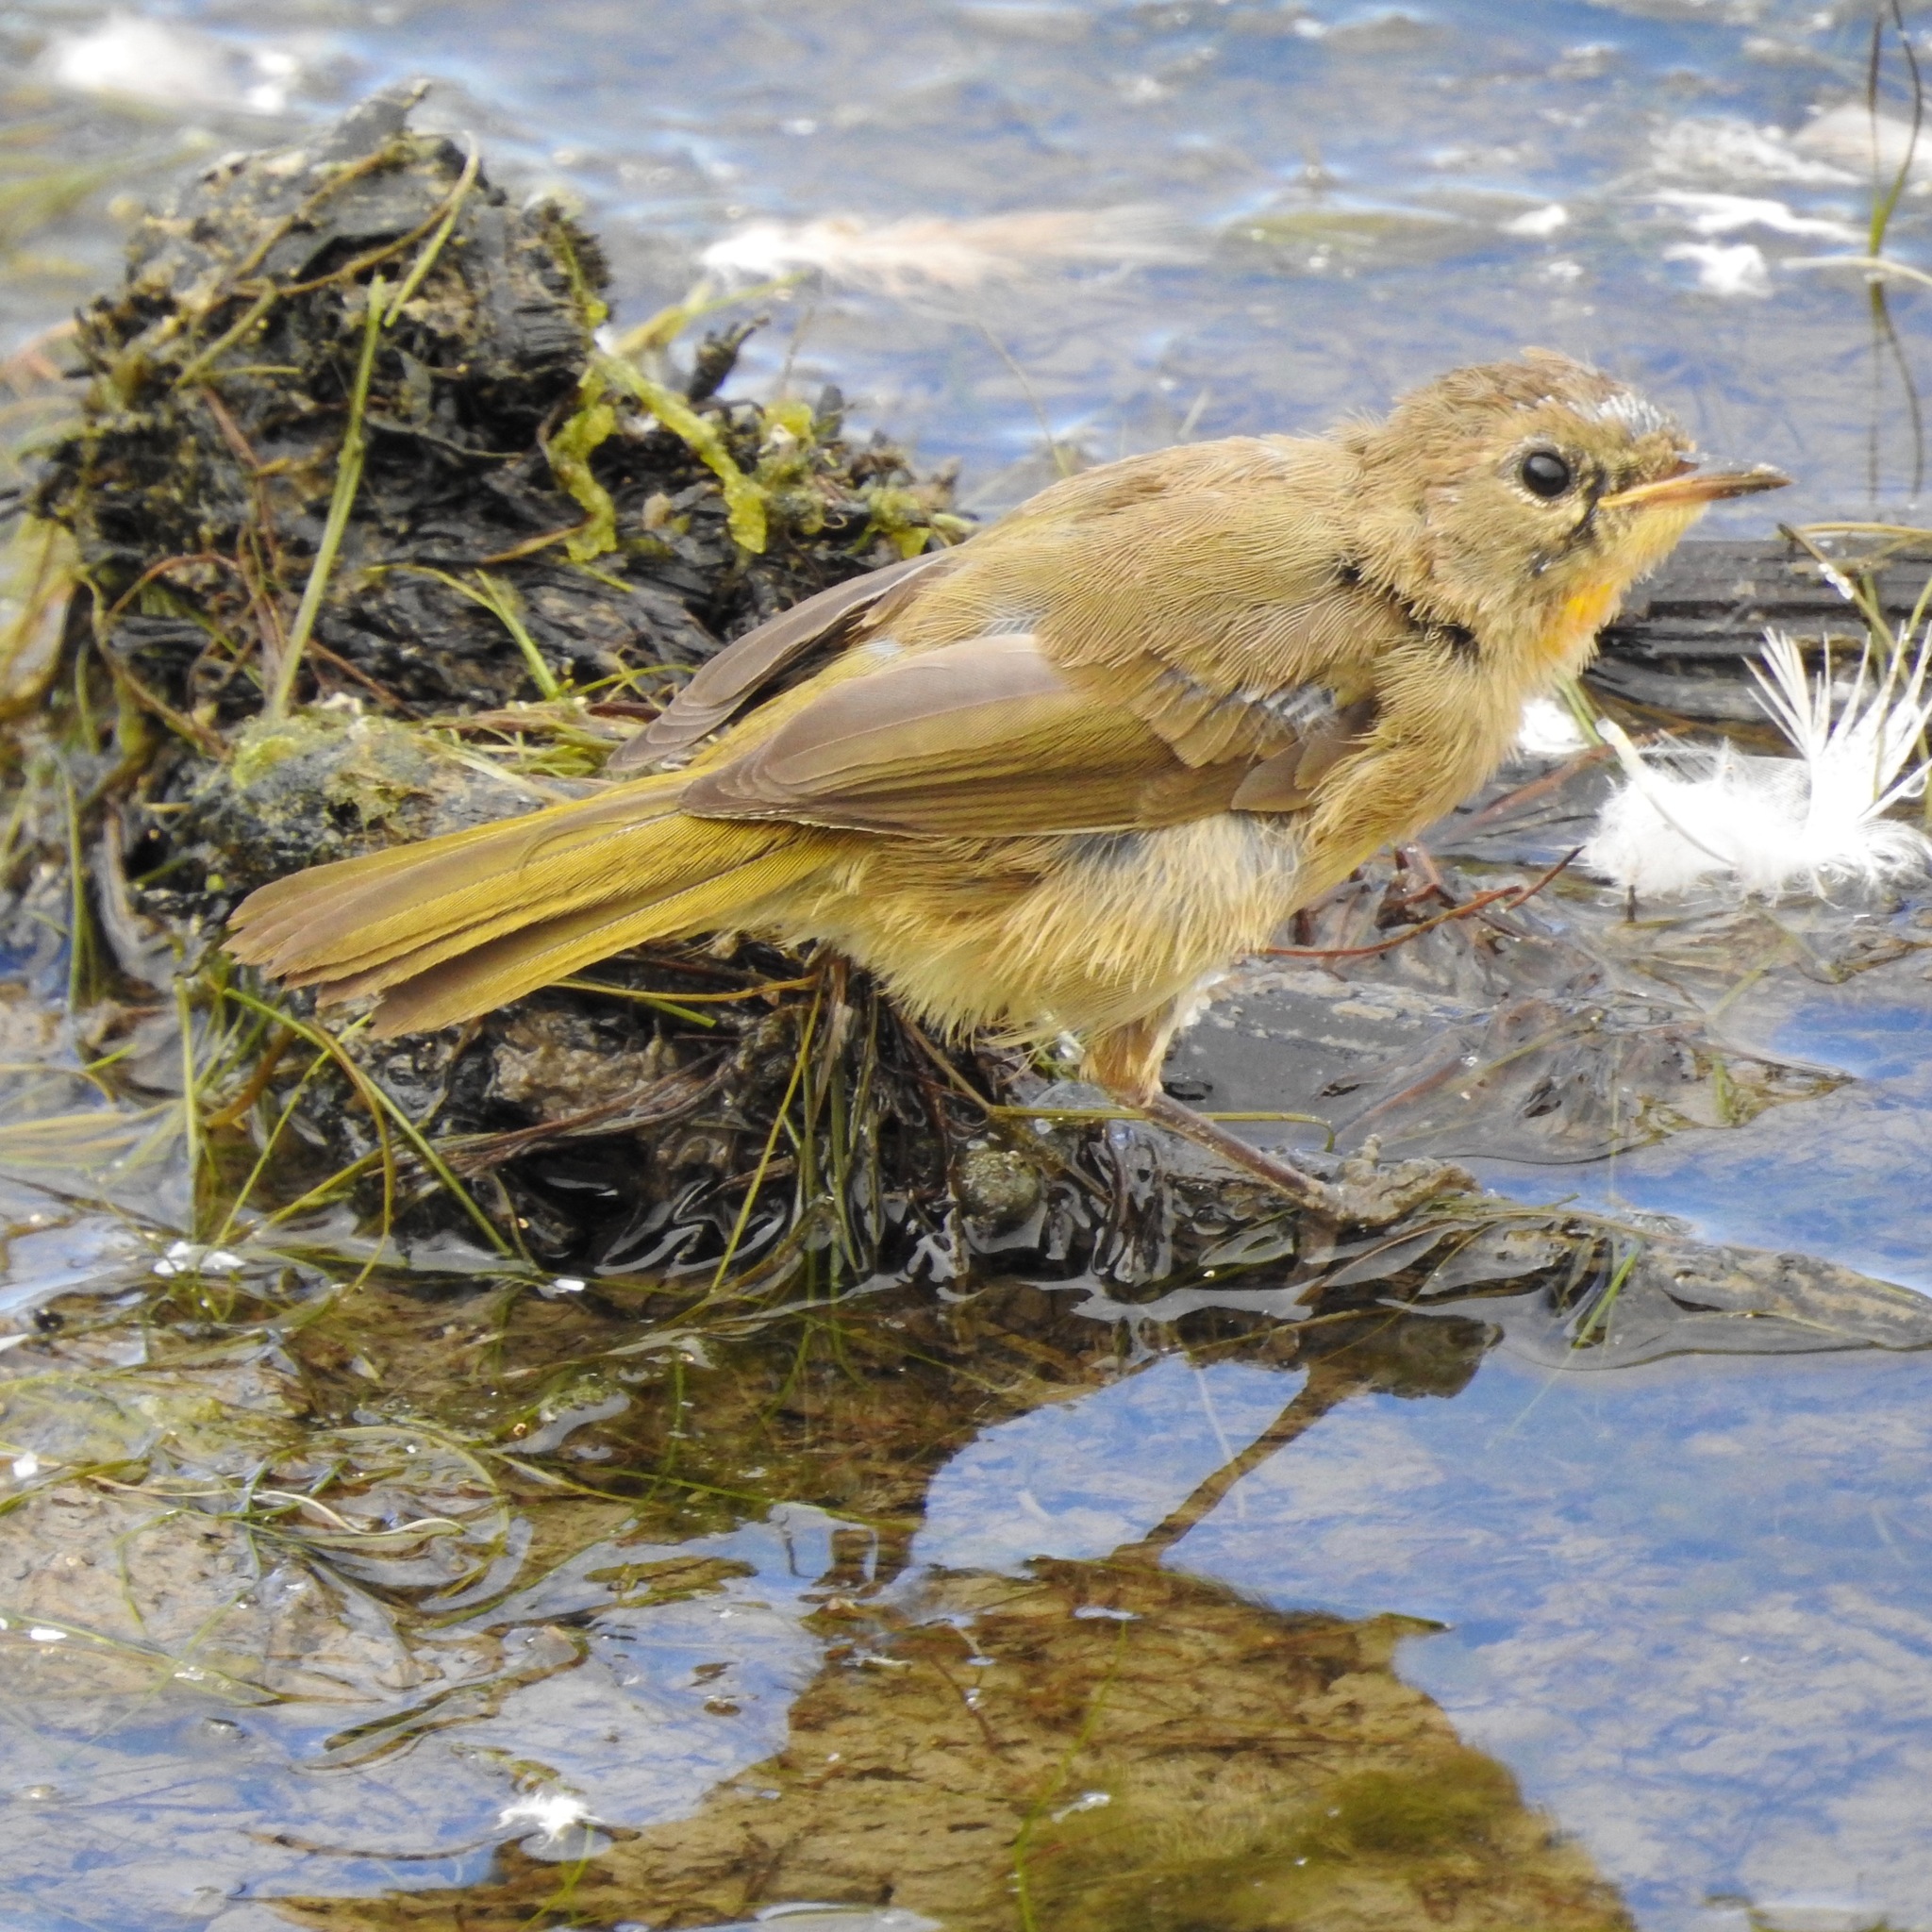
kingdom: Animalia
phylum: Chordata
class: Aves
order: Passeriformes
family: Parulidae
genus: Geothlypis
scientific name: Geothlypis trichas
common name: Common yellowthroat
